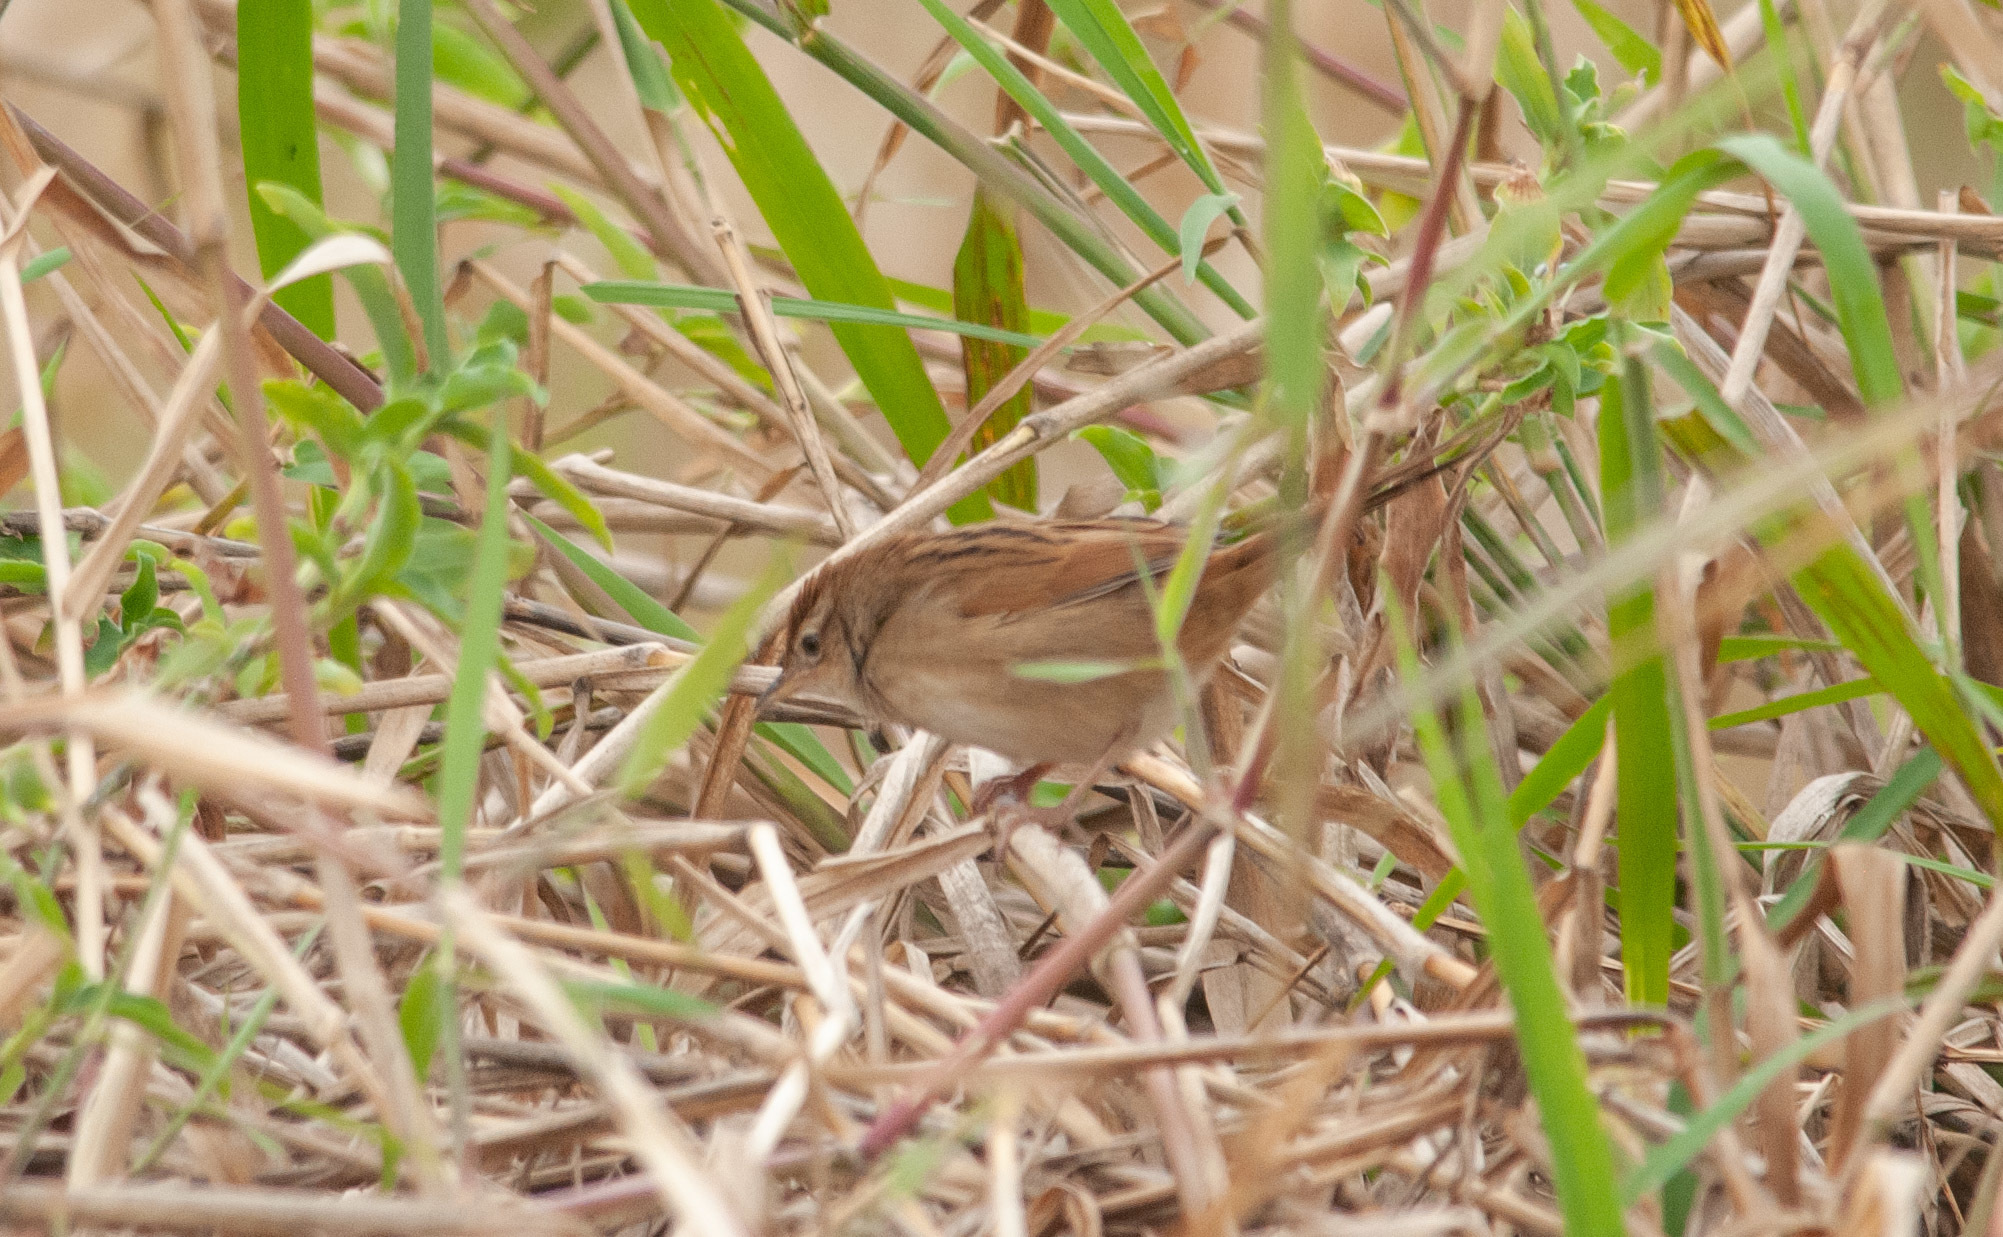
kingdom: Animalia
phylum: Chordata
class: Aves
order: Passeriformes
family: Locustellidae
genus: Megalurus
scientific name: Megalurus timoriensis
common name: Tawny grassbird
